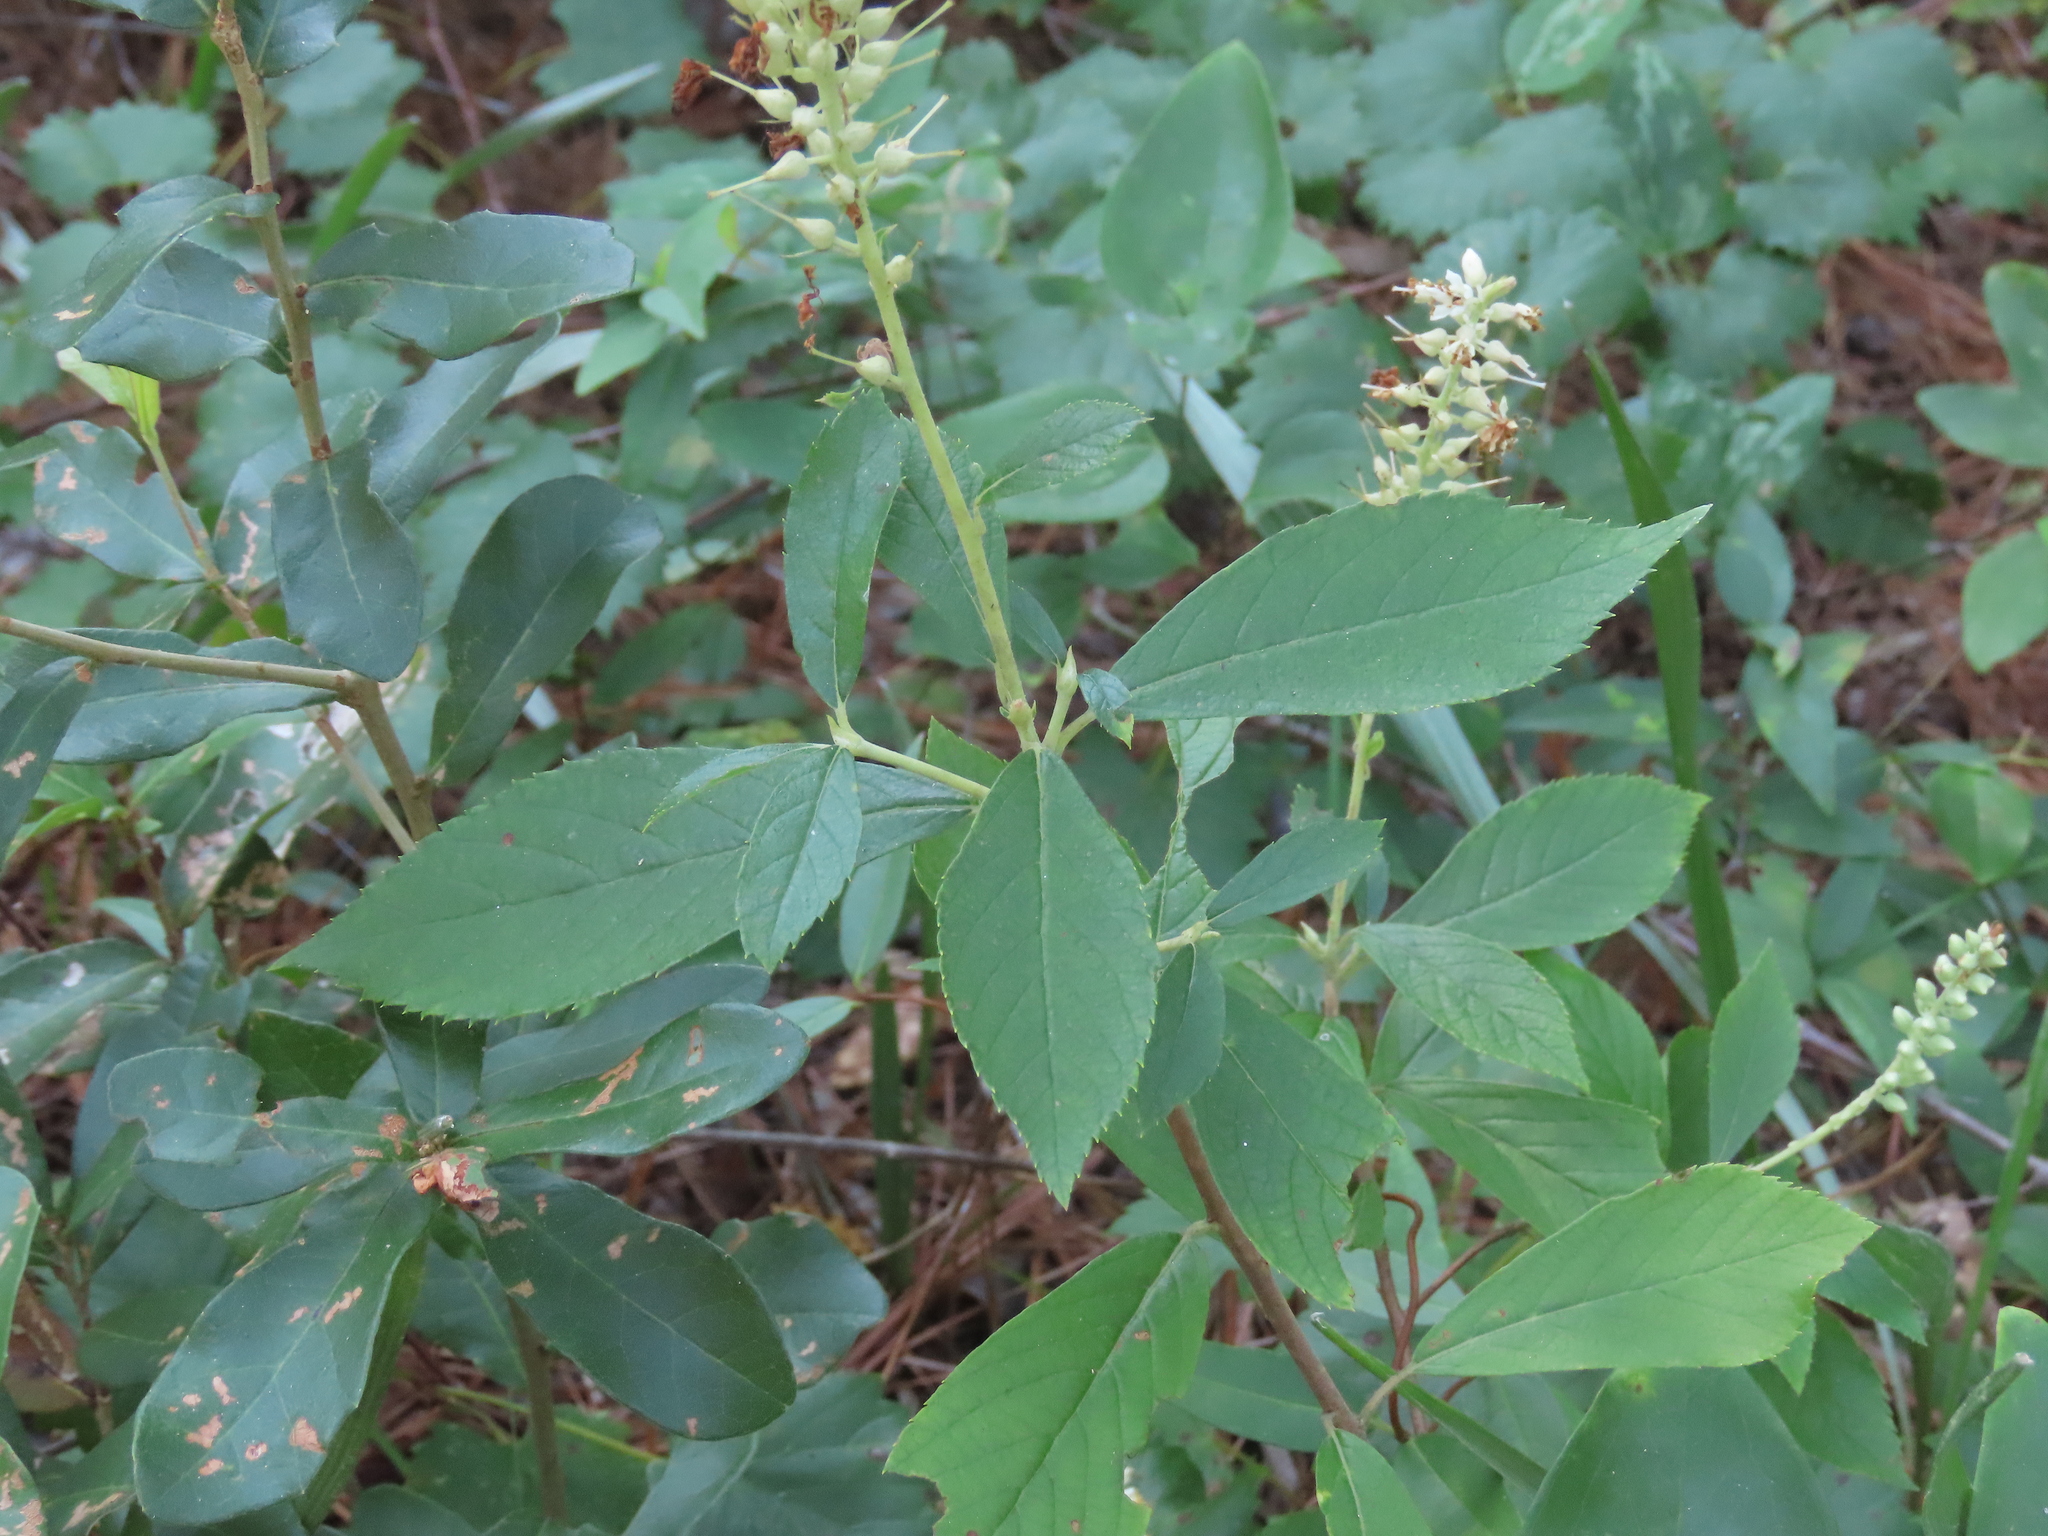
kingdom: Plantae
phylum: Tracheophyta
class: Magnoliopsida
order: Ericales
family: Clethraceae
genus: Clethra
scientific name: Clethra alnifolia
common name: Sweet pepperbush
